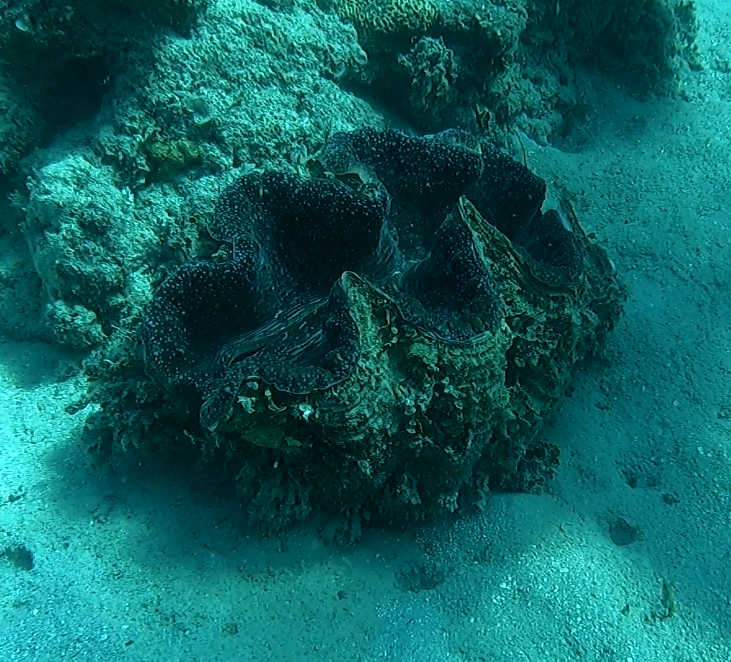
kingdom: Animalia
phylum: Mollusca
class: Bivalvia
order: Cardiida
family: Cardiidae
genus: Tridacna
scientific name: Tridacna gigas
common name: Giant clam
